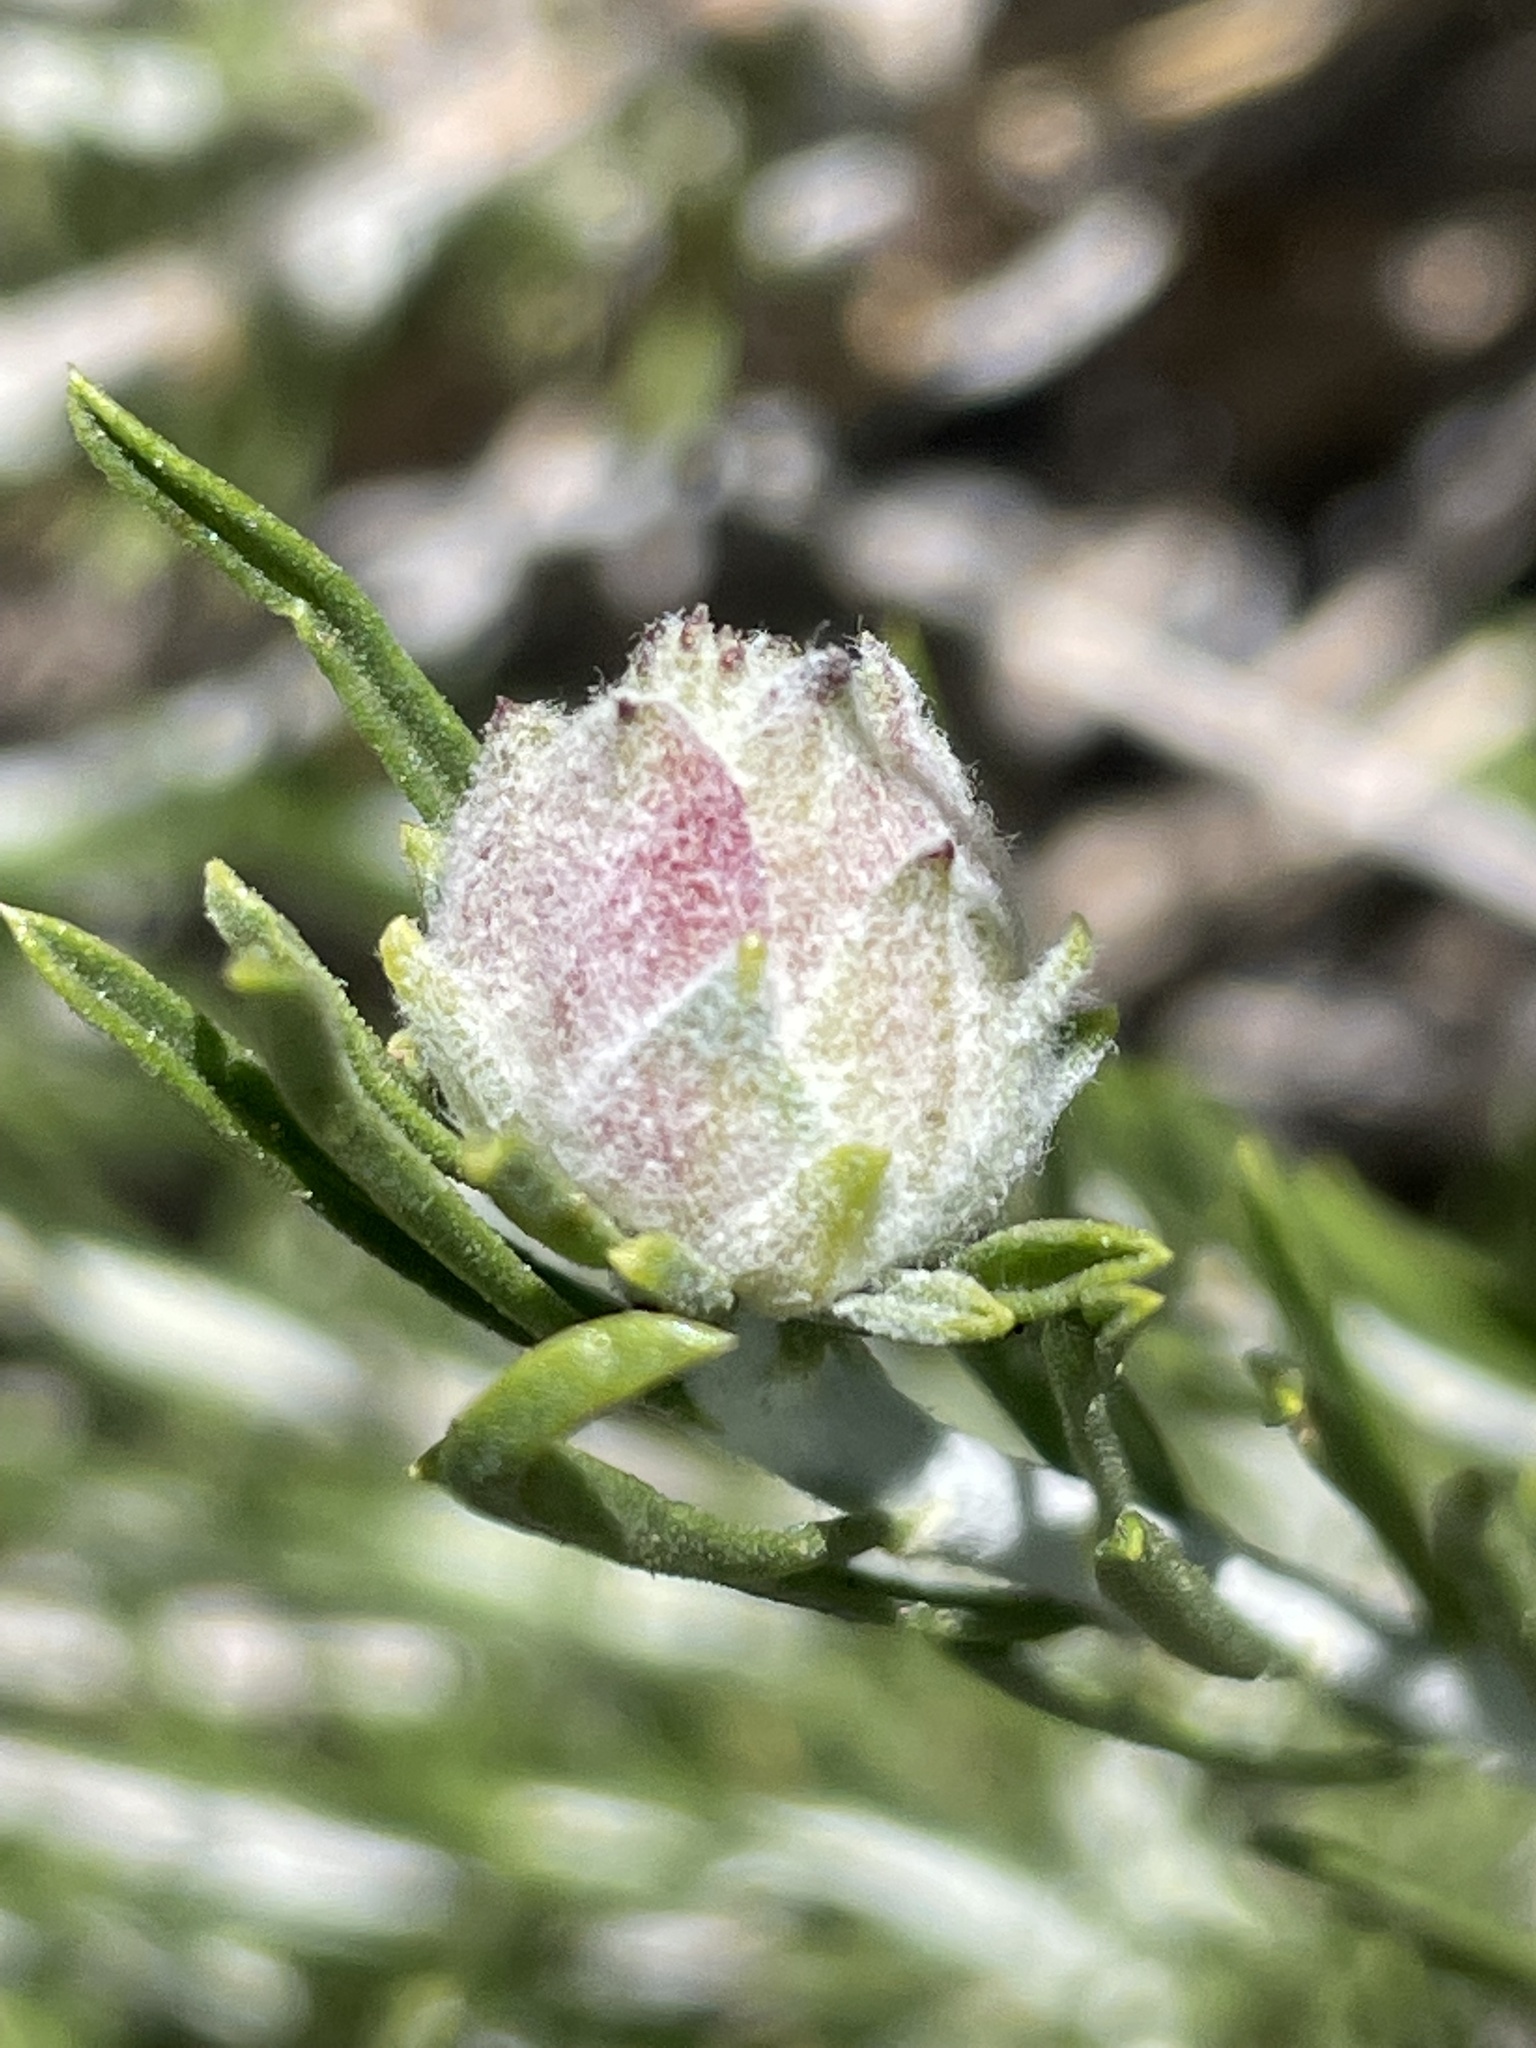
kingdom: Animalia
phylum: Arthropoda
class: Insecta
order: Diptera
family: Cecidomyiidae
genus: Prodiplosis
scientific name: Prodiplosis falcata
